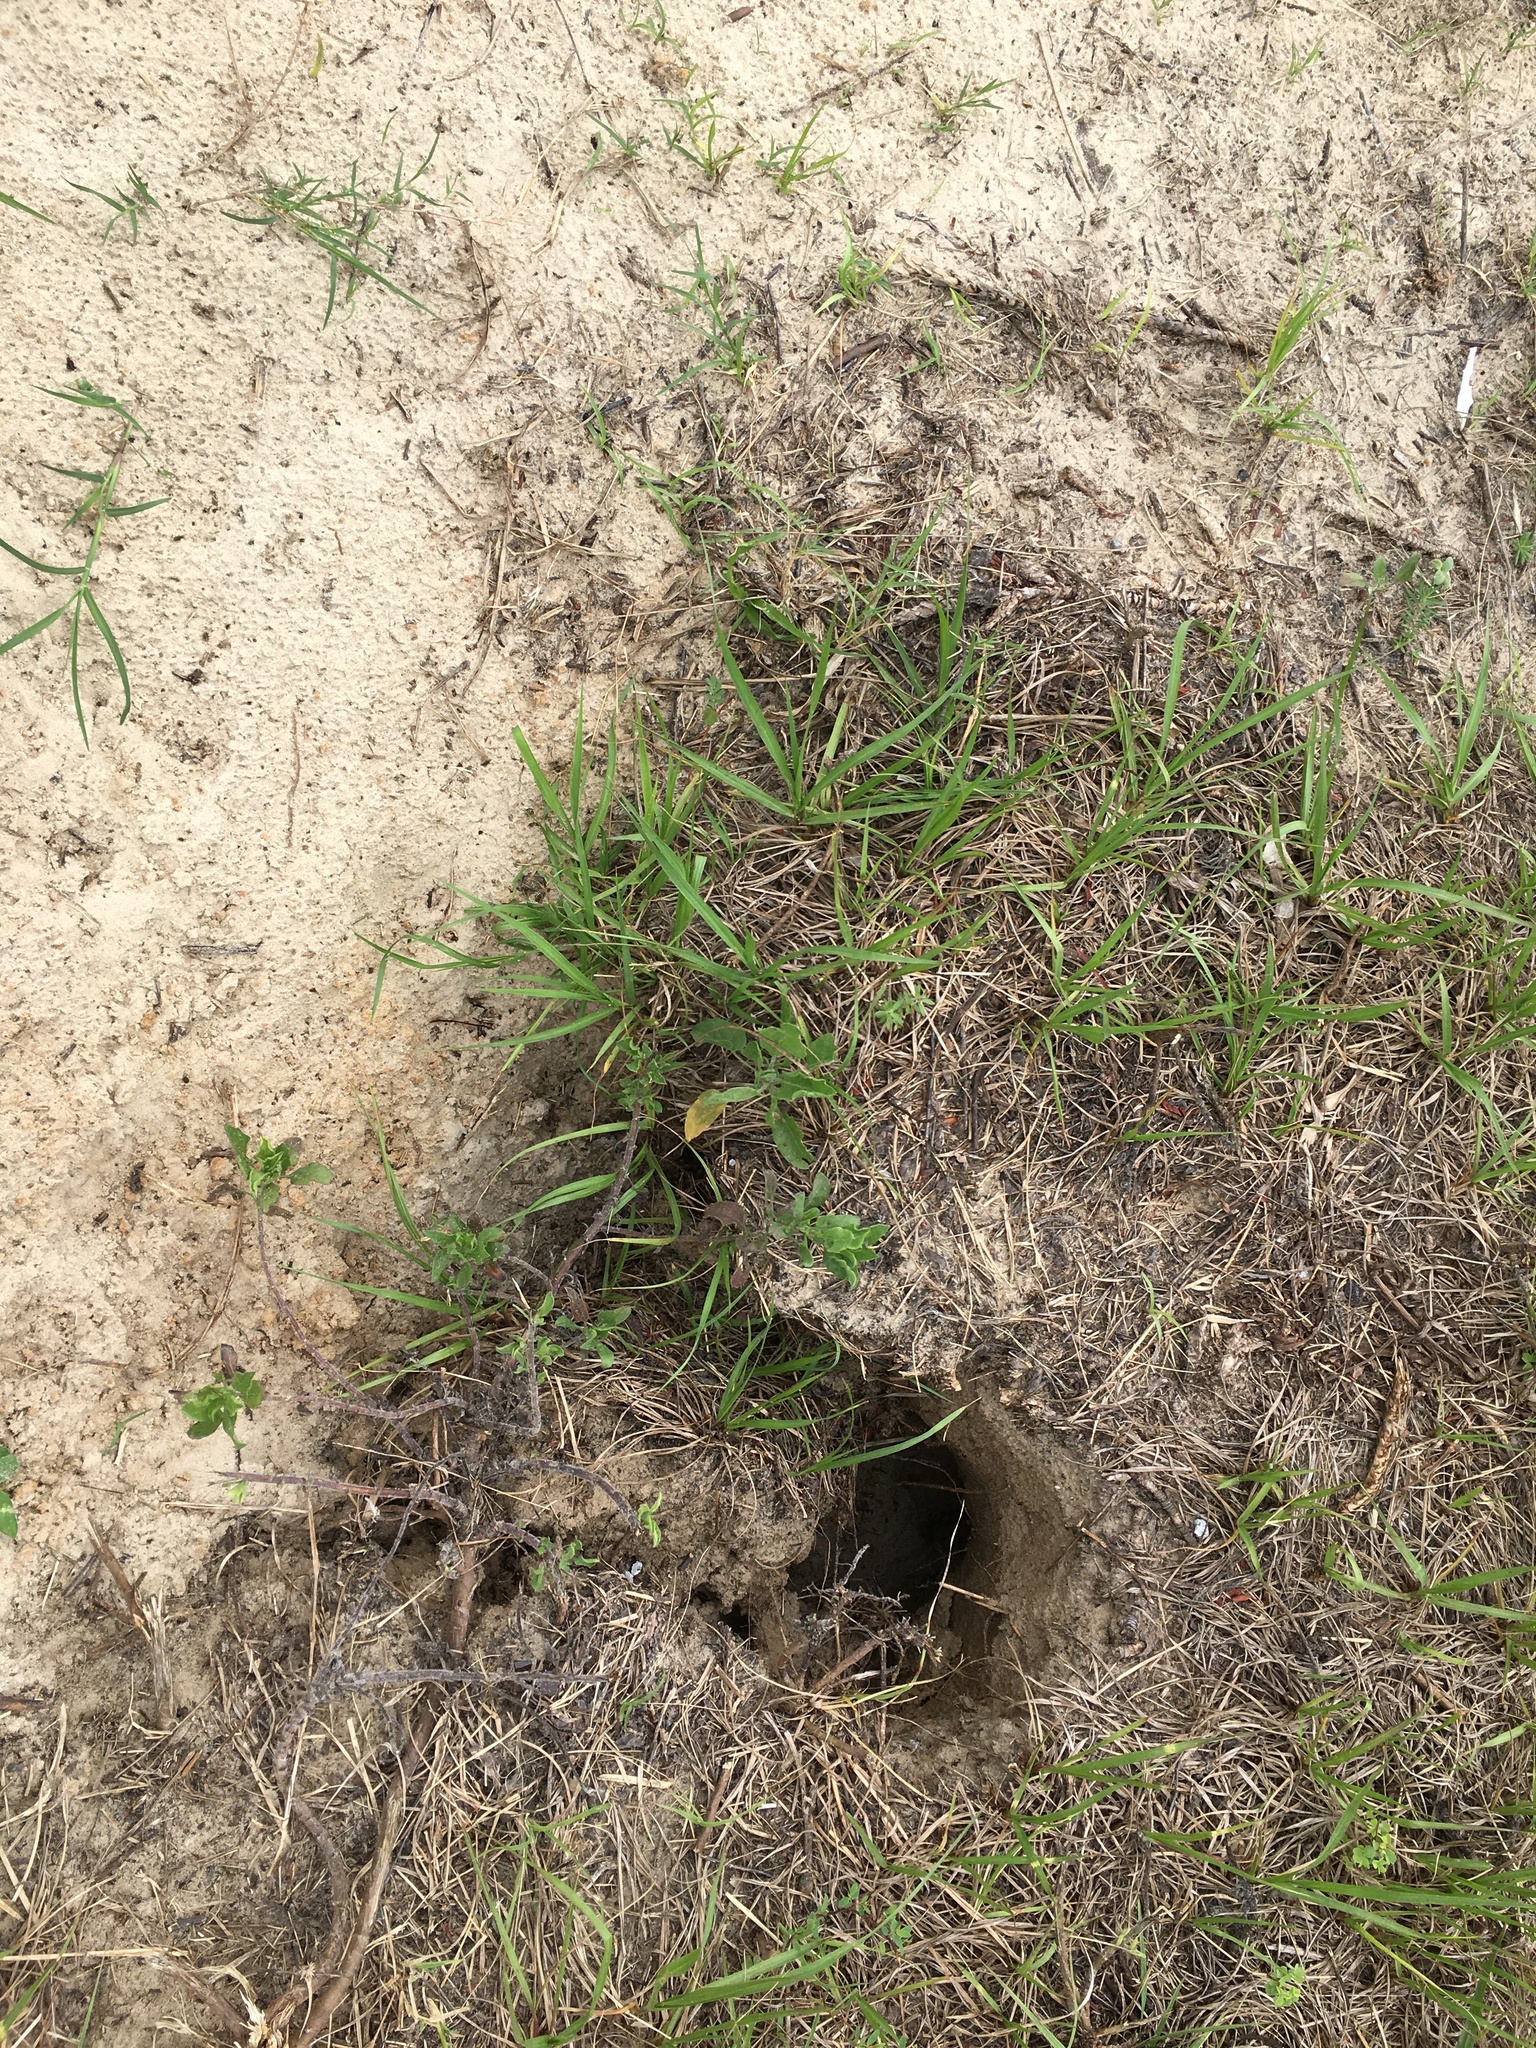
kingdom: Animalia
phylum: Chordata
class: Testudines
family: Testudinidae
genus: Gopherus
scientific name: Gopherus polyphemus
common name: Florida gopher tortoise
